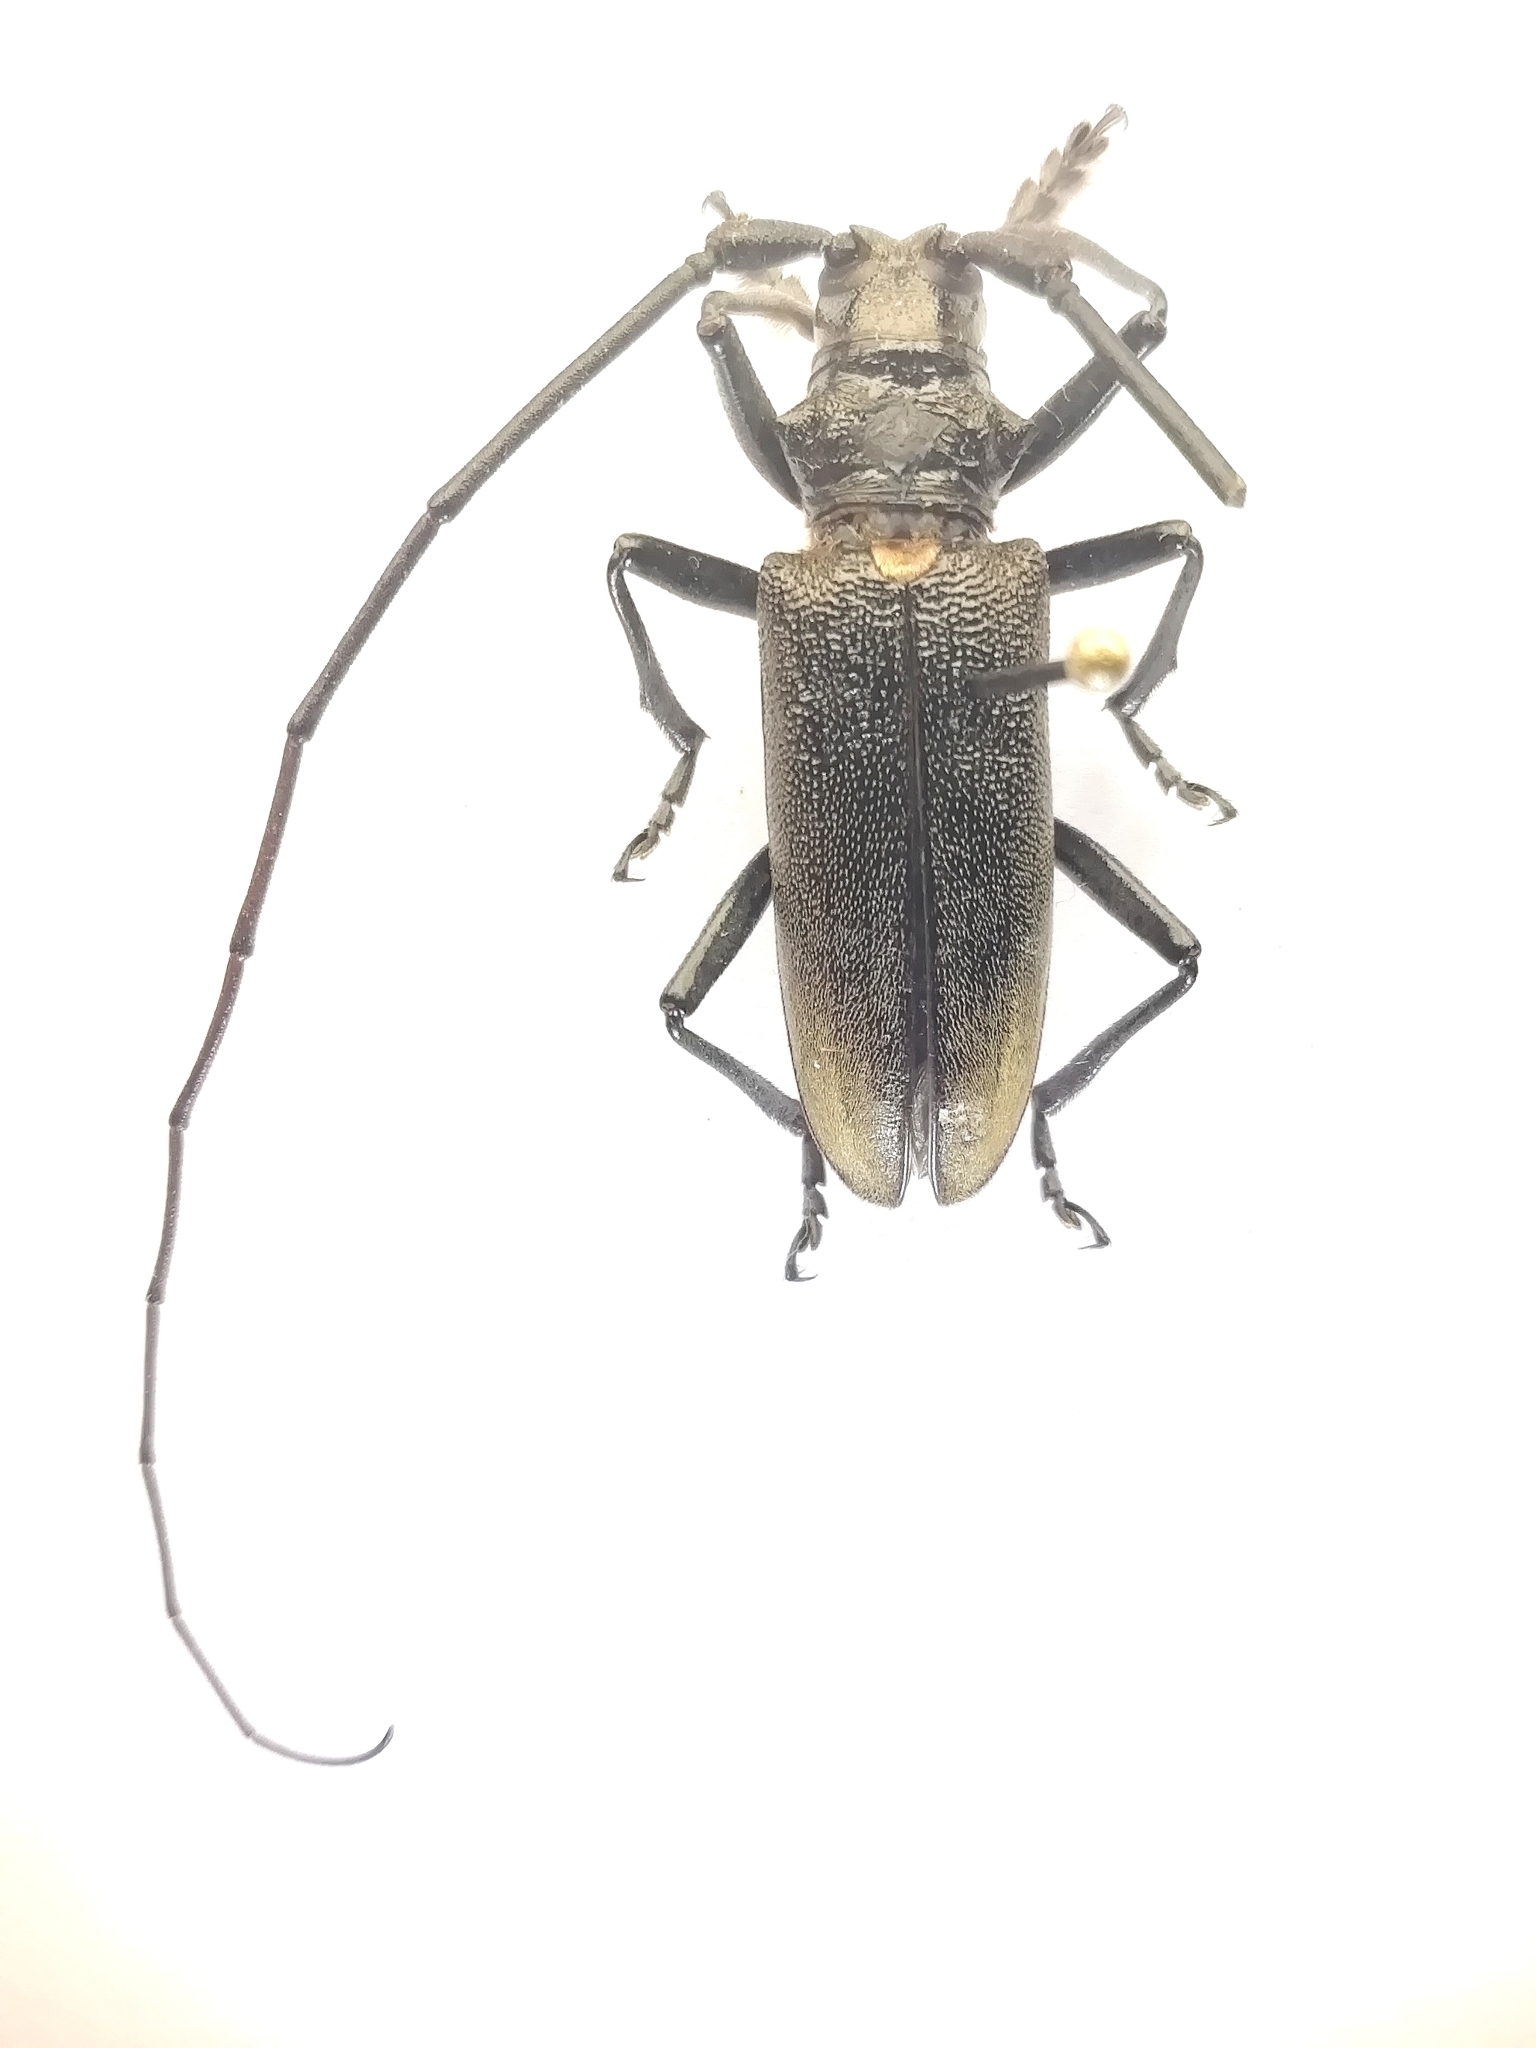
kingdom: Animalia
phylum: Arthropoda
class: Insecta
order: Coleoptera
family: Cerambycidae
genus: Monochamus
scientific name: Monochamus sartor
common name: Pine sawyer
